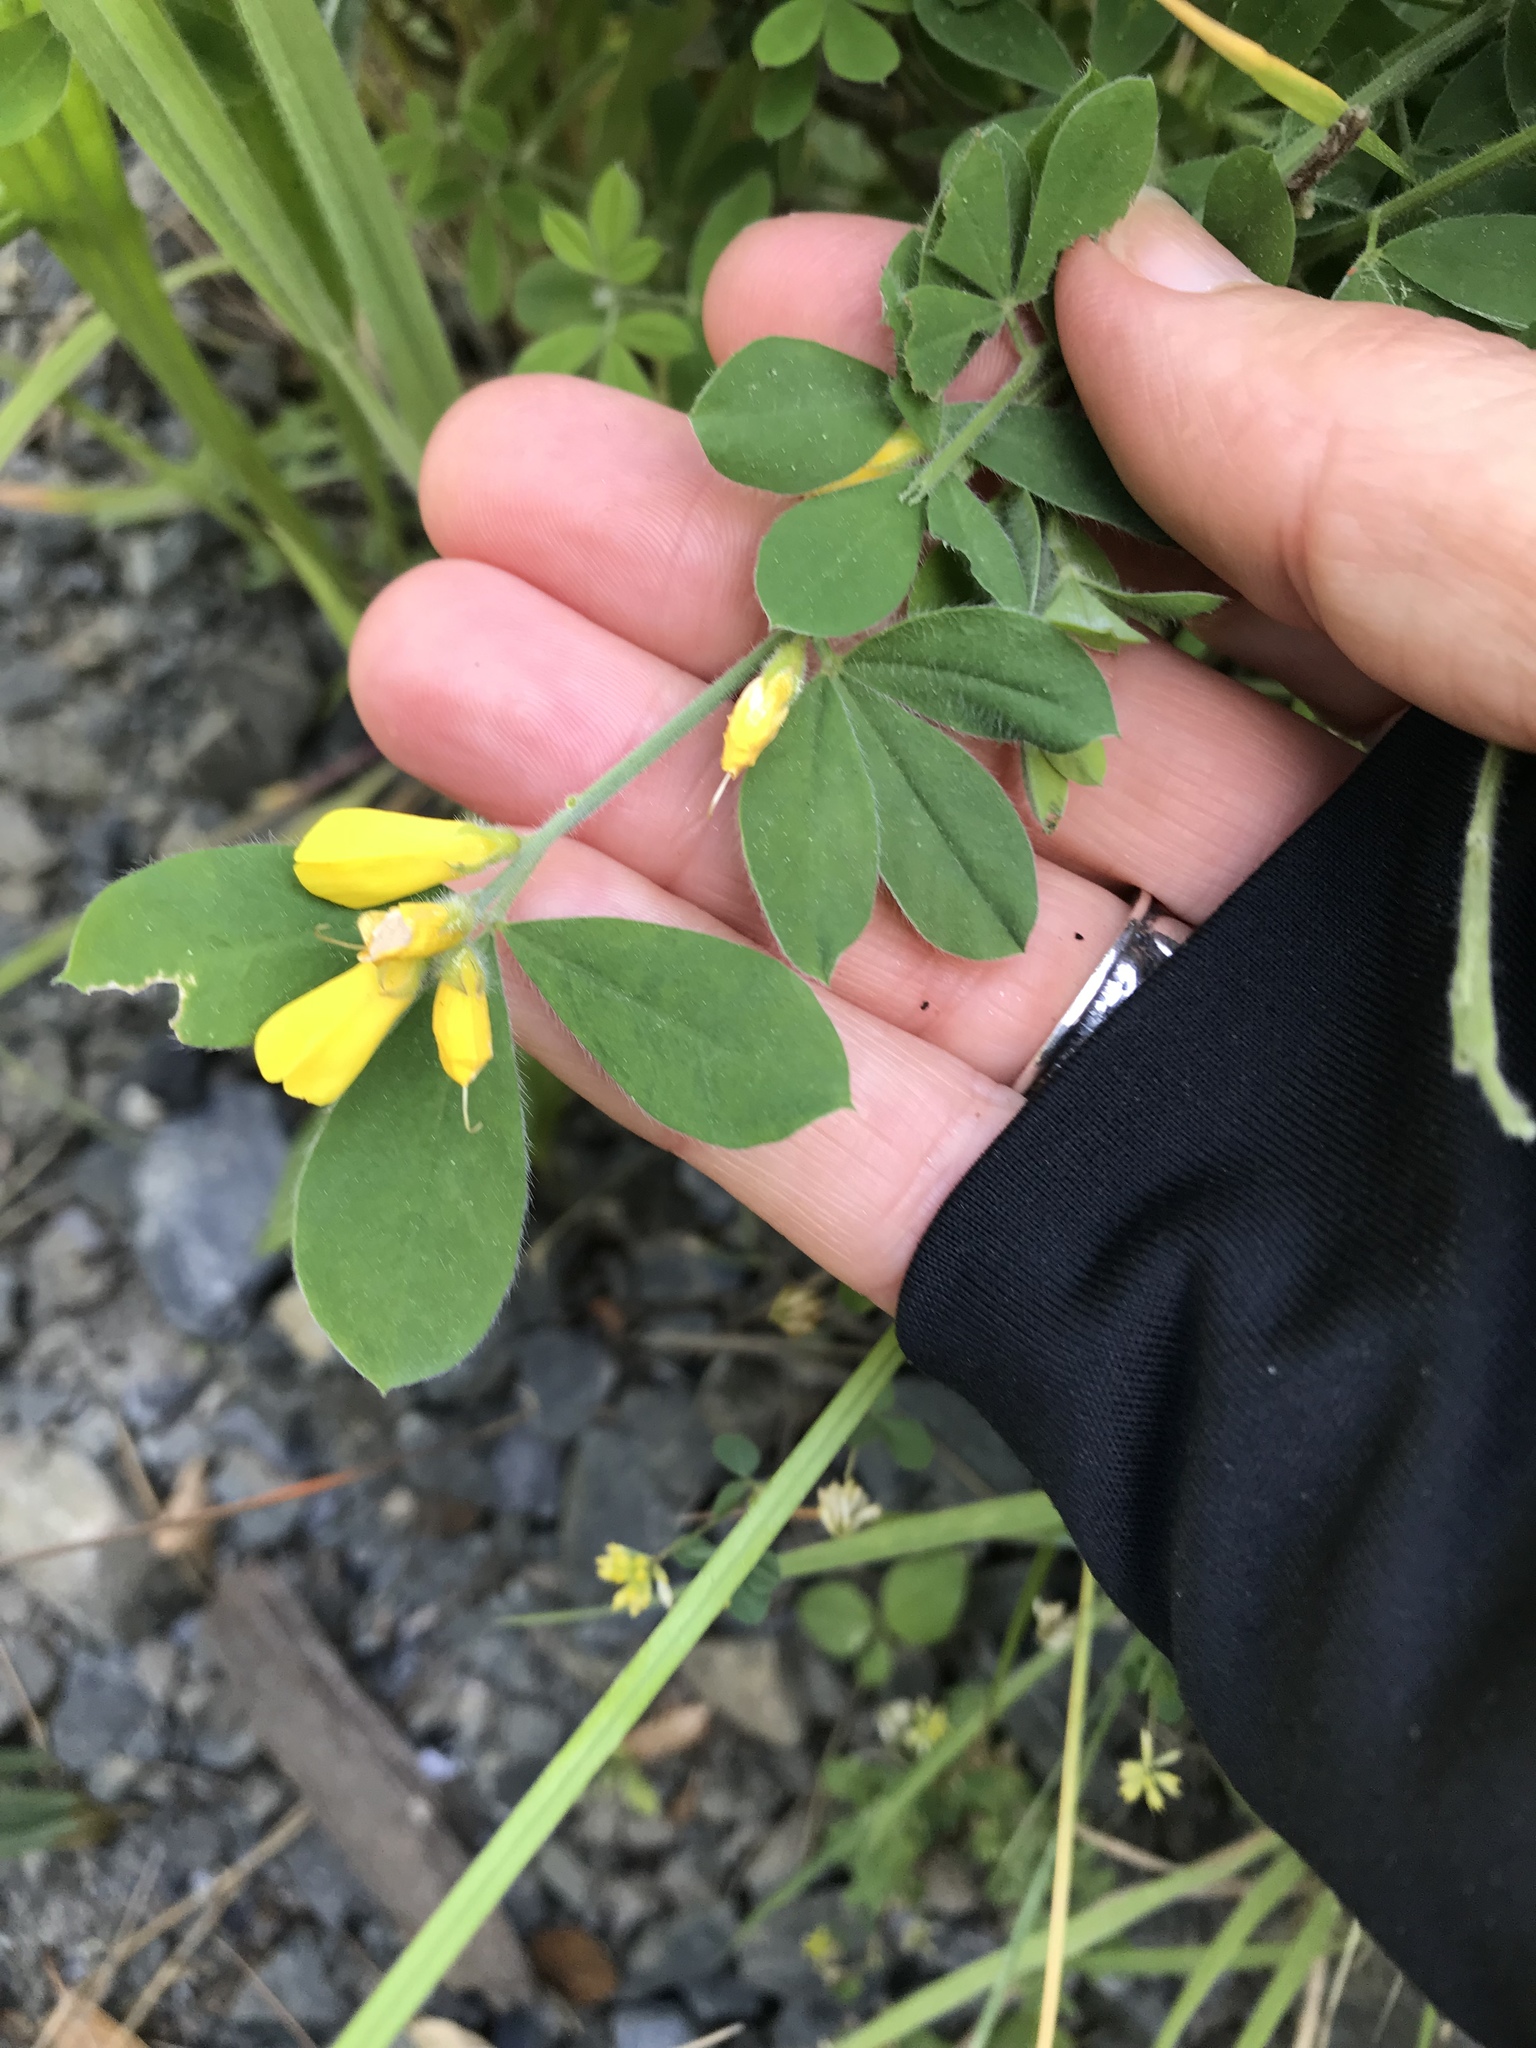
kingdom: Plantae
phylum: Tracheophyta
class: Magnoliopsida
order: Fabales
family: Fabaceae
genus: Genista
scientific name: Genista monspessulana
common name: Montpellier broom
